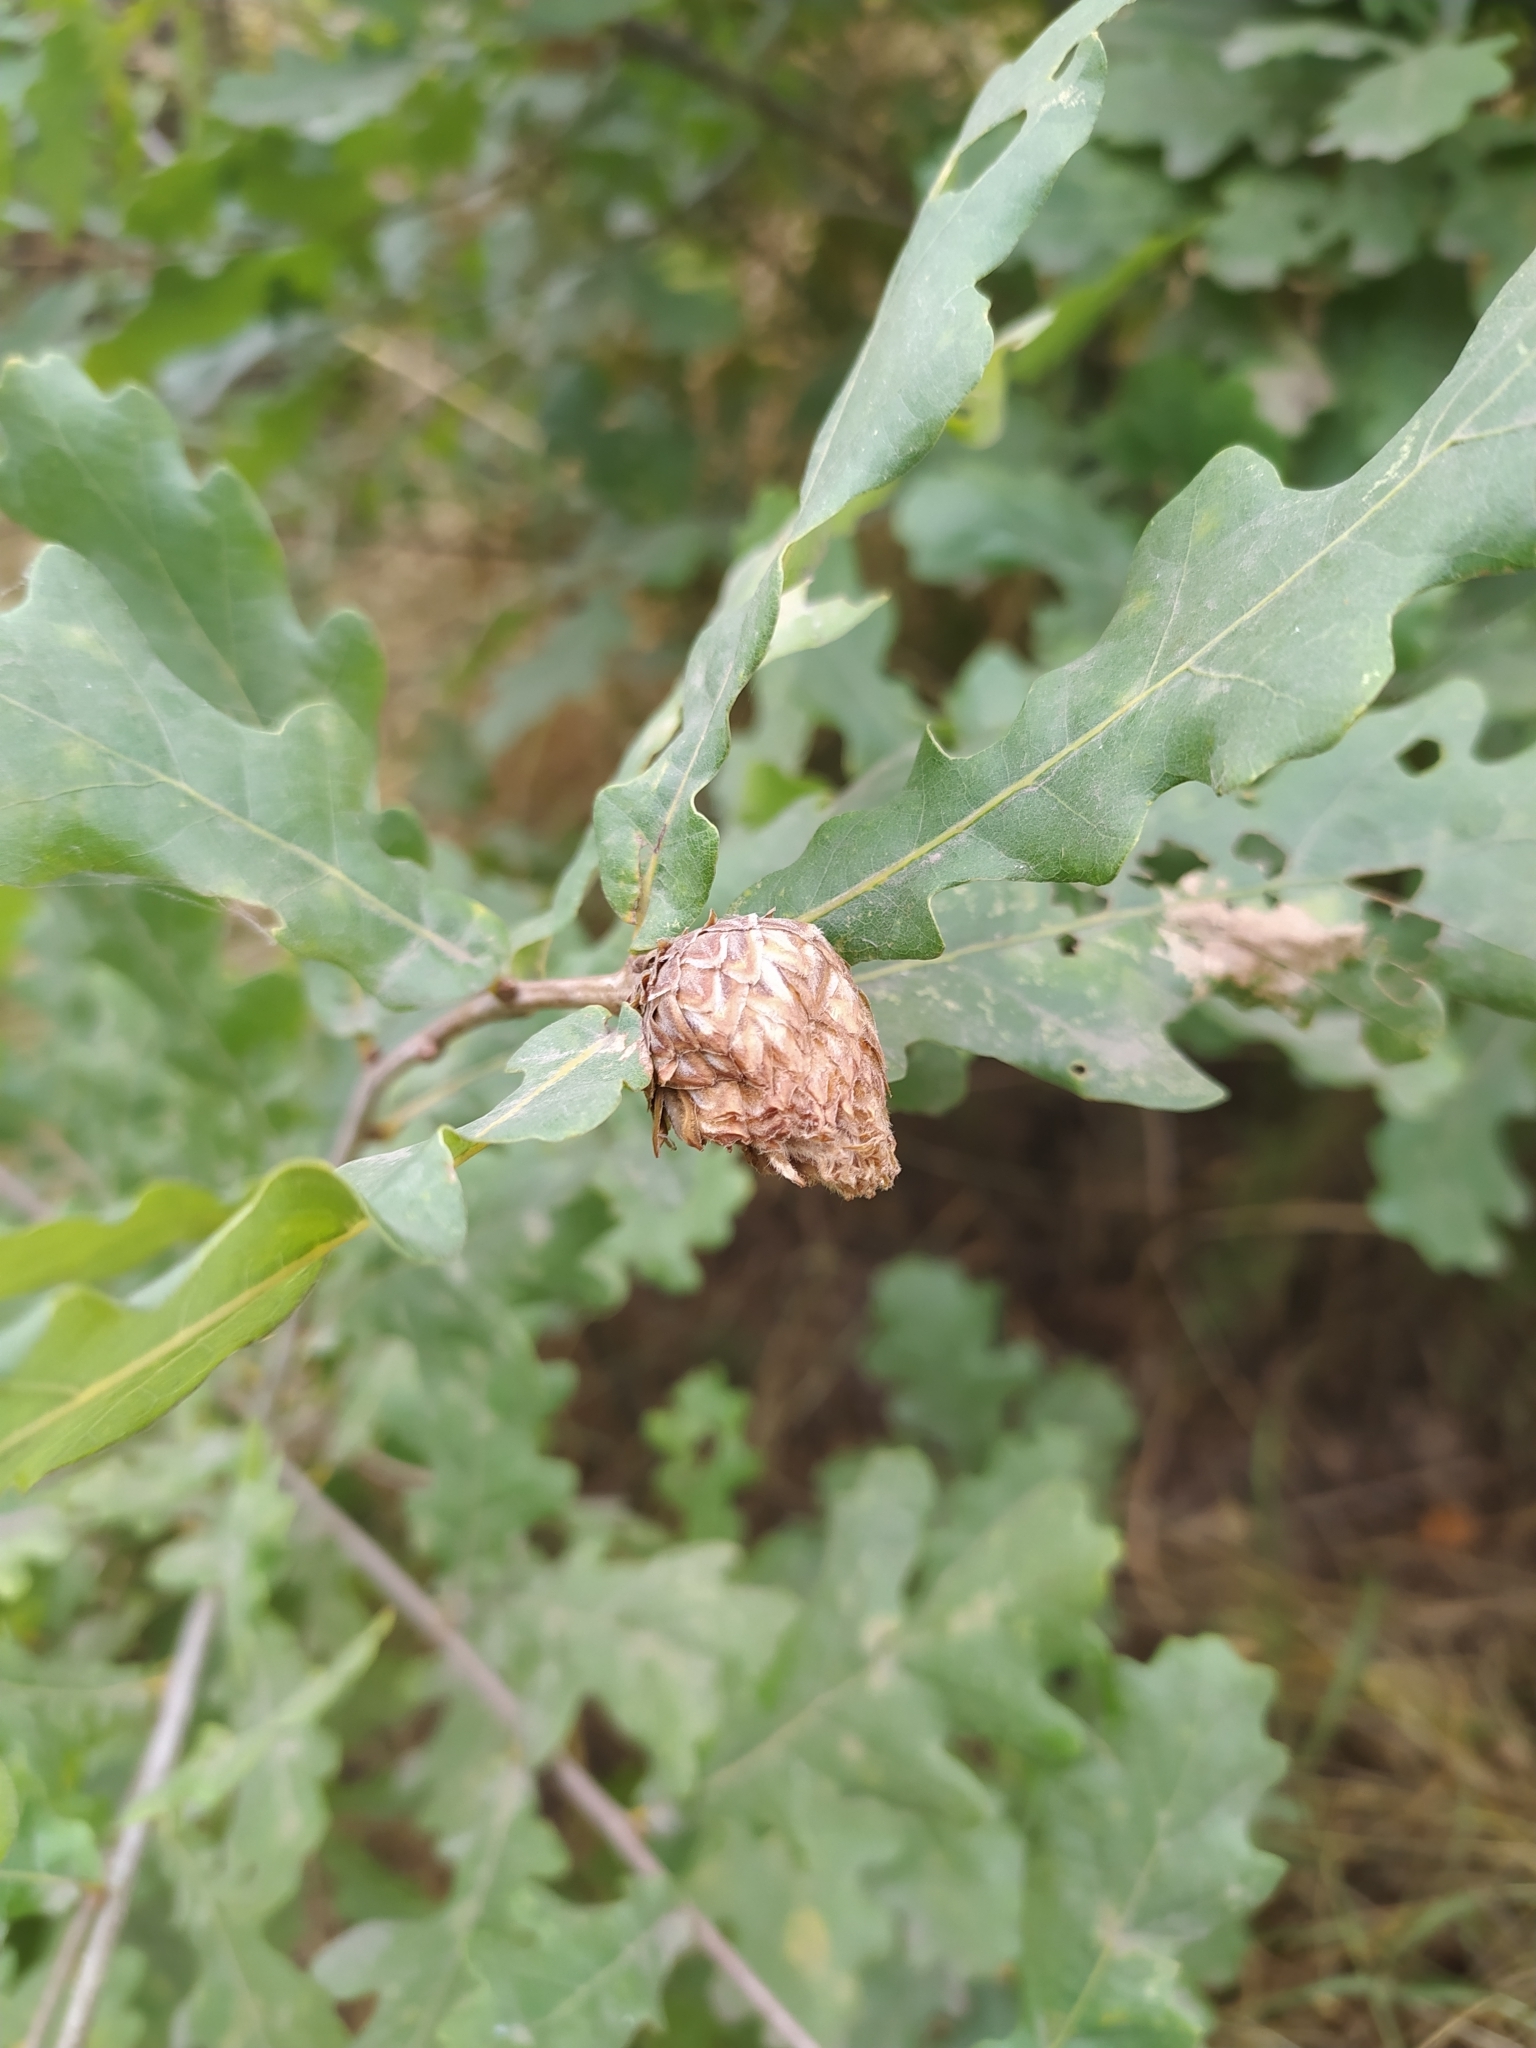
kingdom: Animalia
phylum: Arthropoda
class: Insecta
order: Hymenoptera
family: Cynipidae
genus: Andricus
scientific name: Andricus foecundatrix
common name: Artichoke gall
